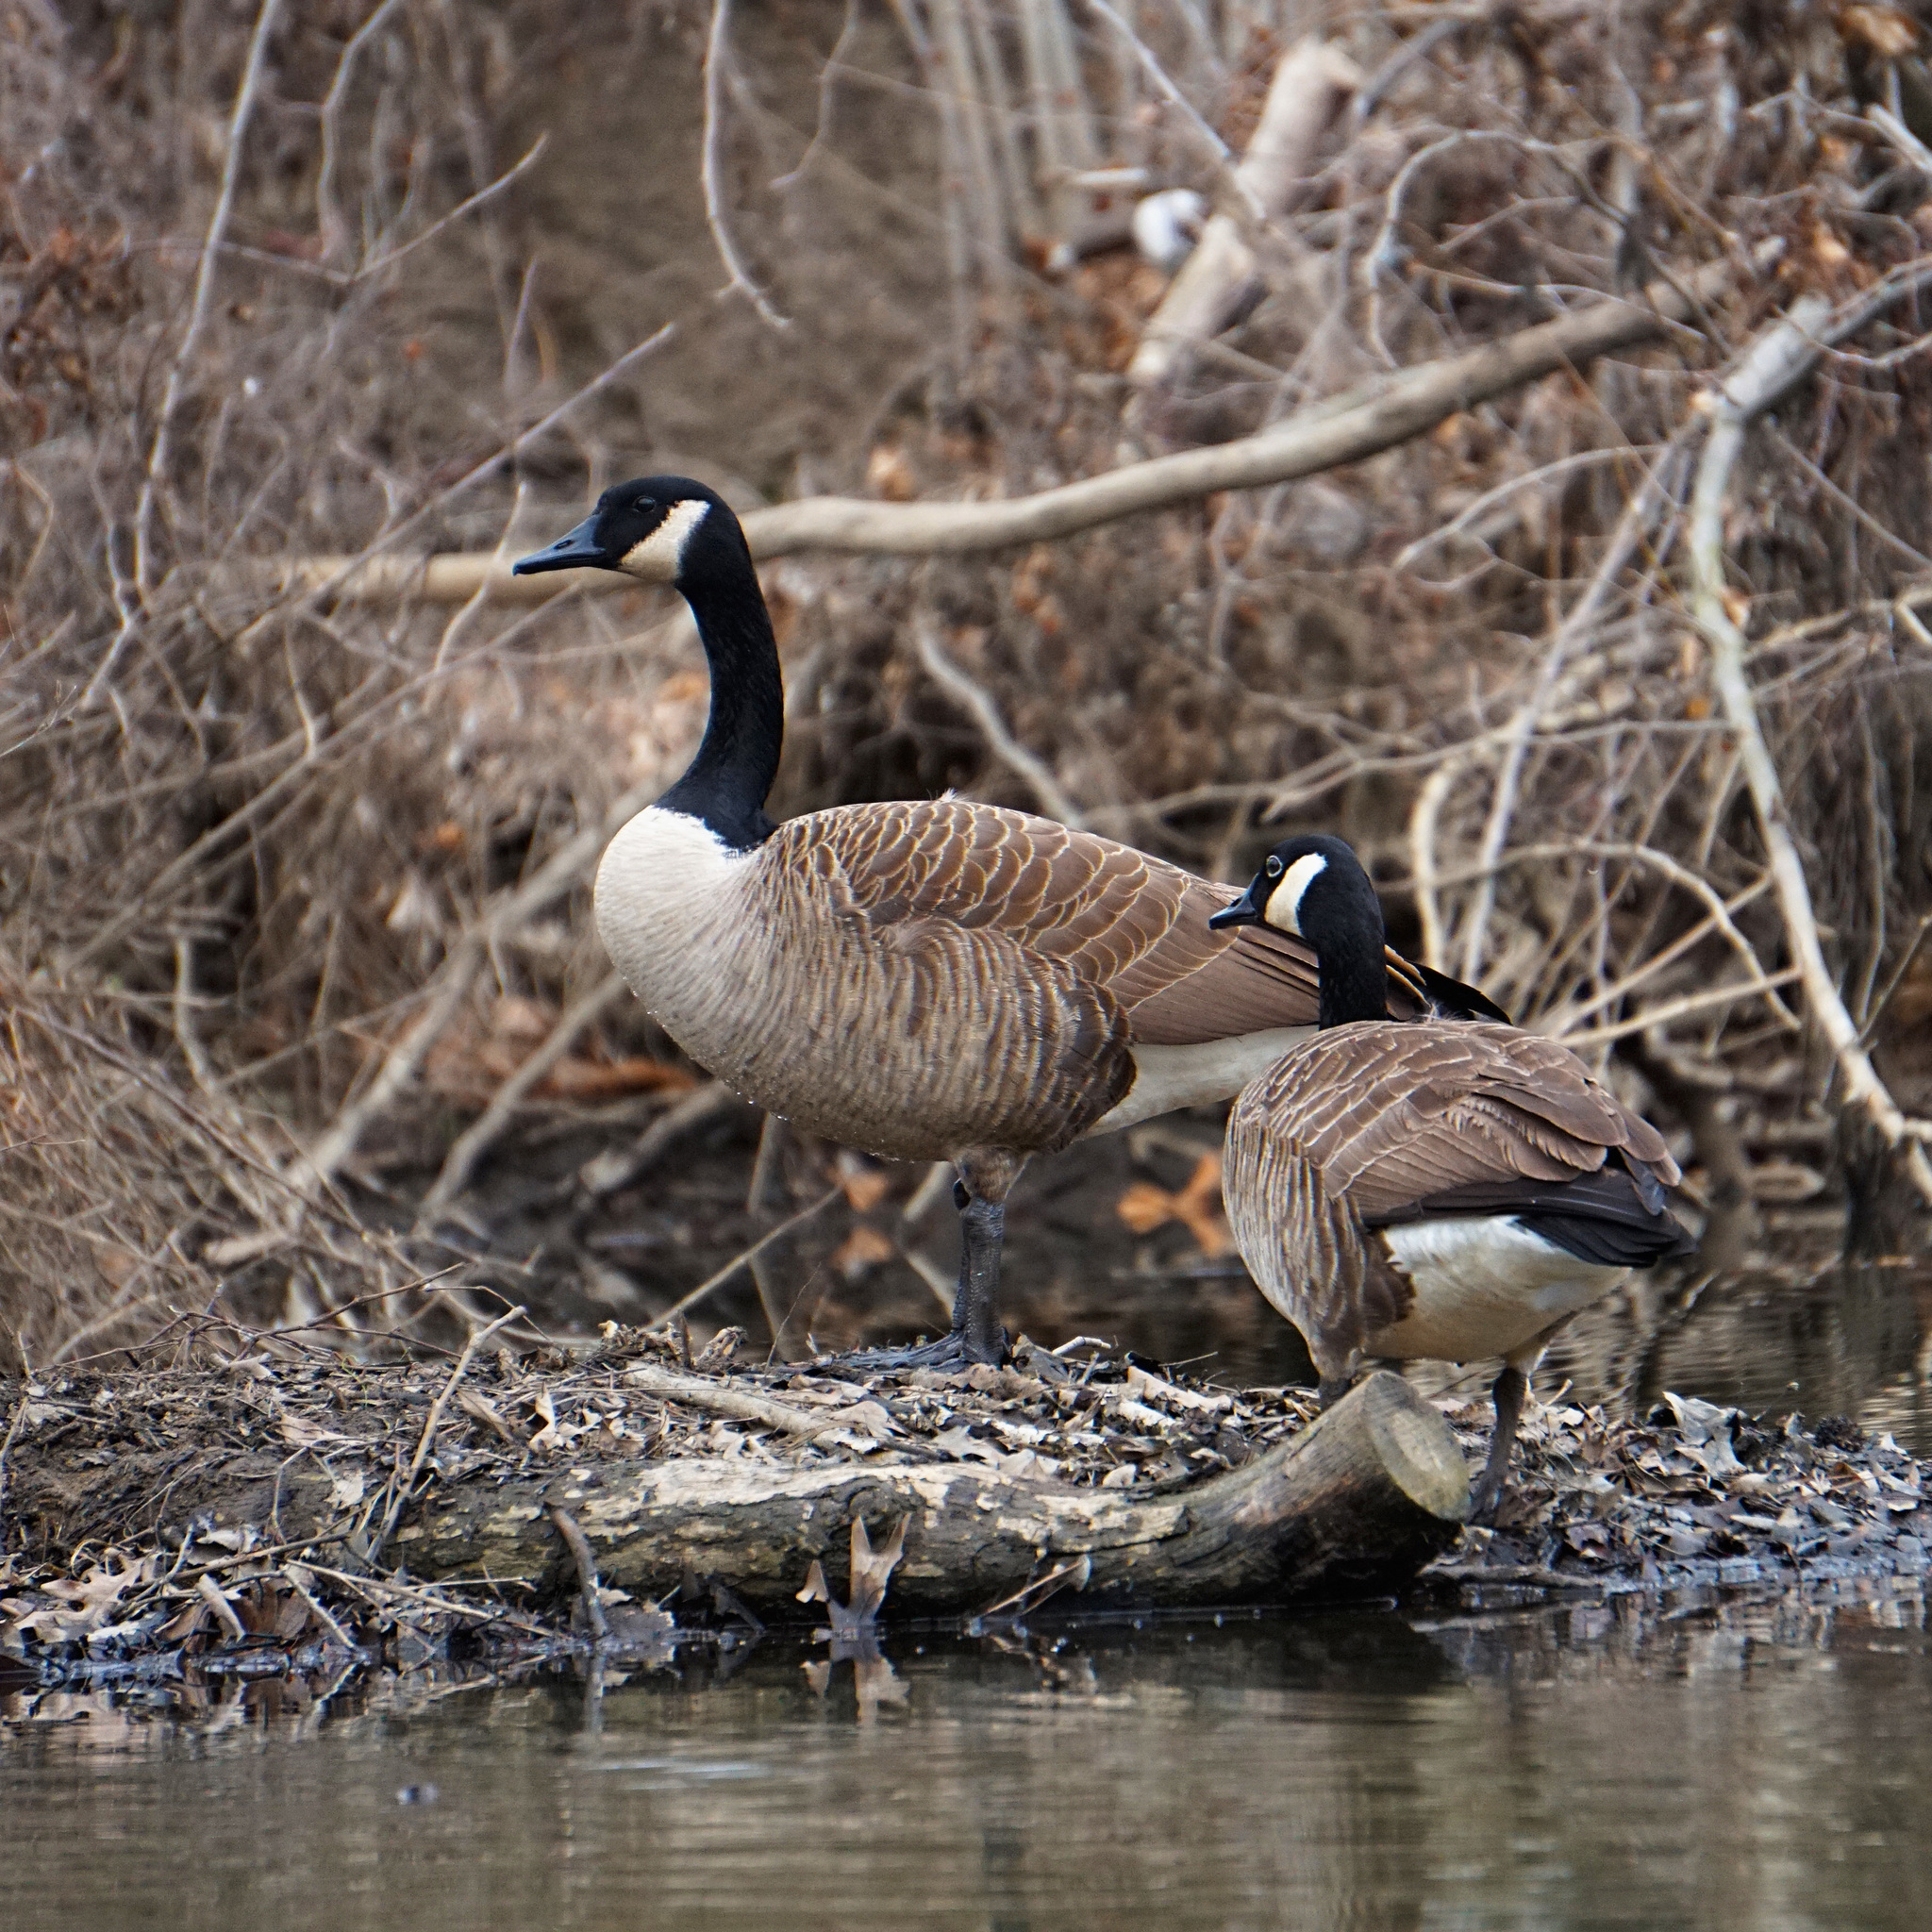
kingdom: Animalia
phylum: Chordata
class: Aves
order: Anseriformes
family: Anatidae
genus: Branta
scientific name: Branta canadensis
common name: Canada goose
